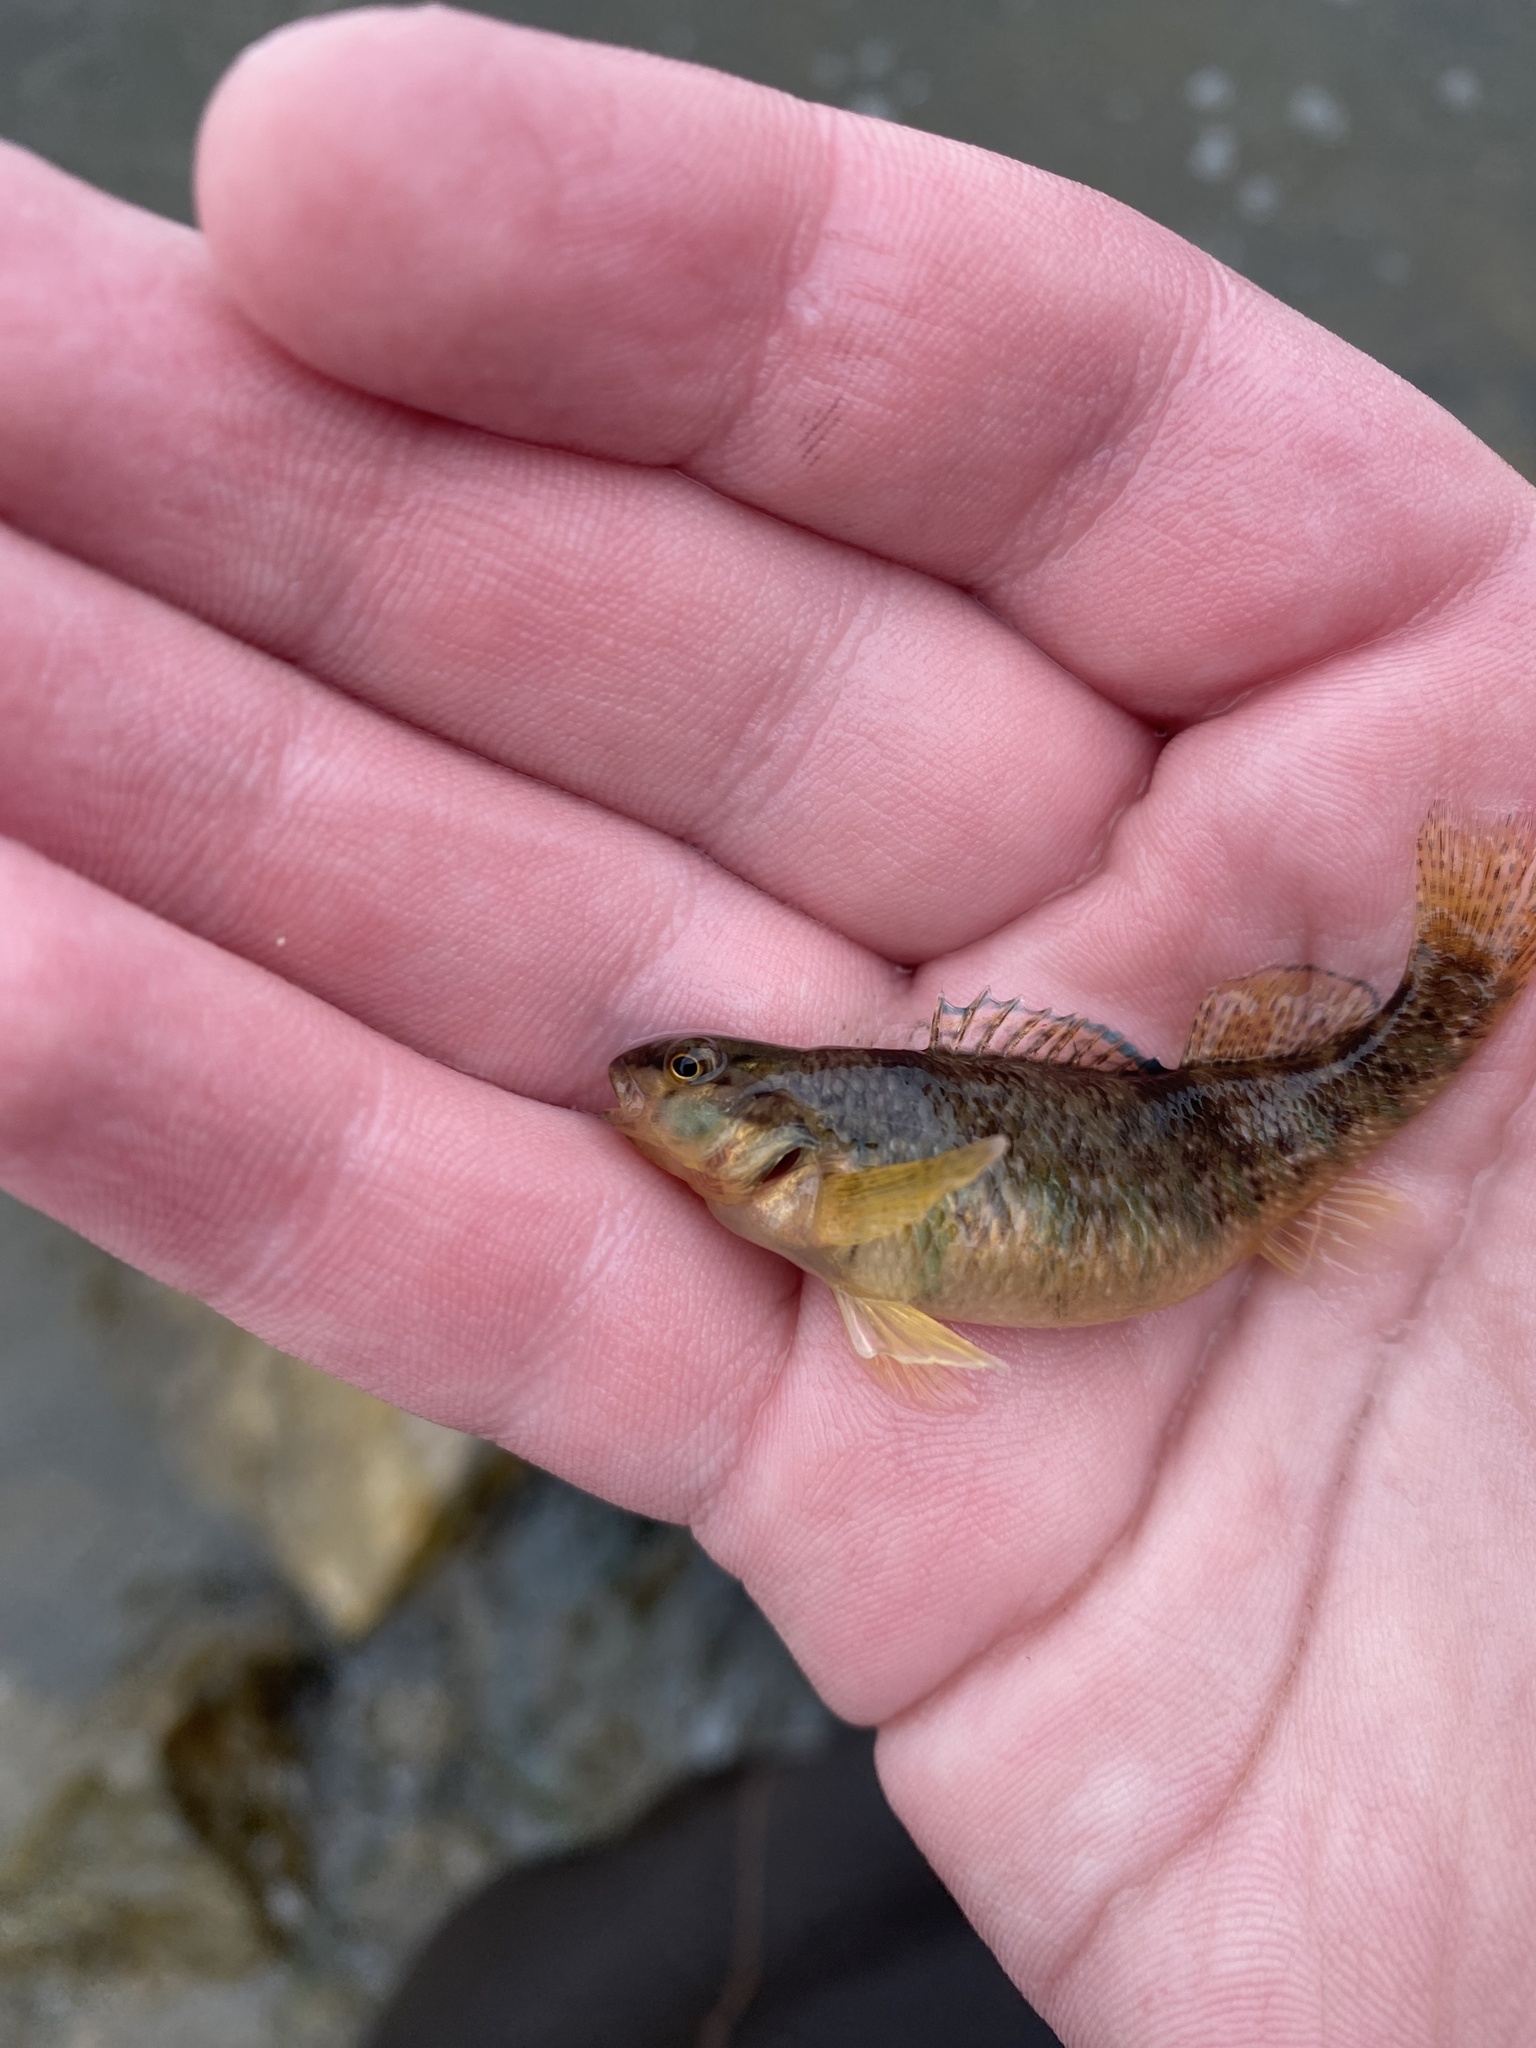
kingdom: Animalia
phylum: Chordata
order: Perciformes
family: Percidae
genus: Etheostoma
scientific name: Etheostoma caeruleum
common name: Rainbow darter
